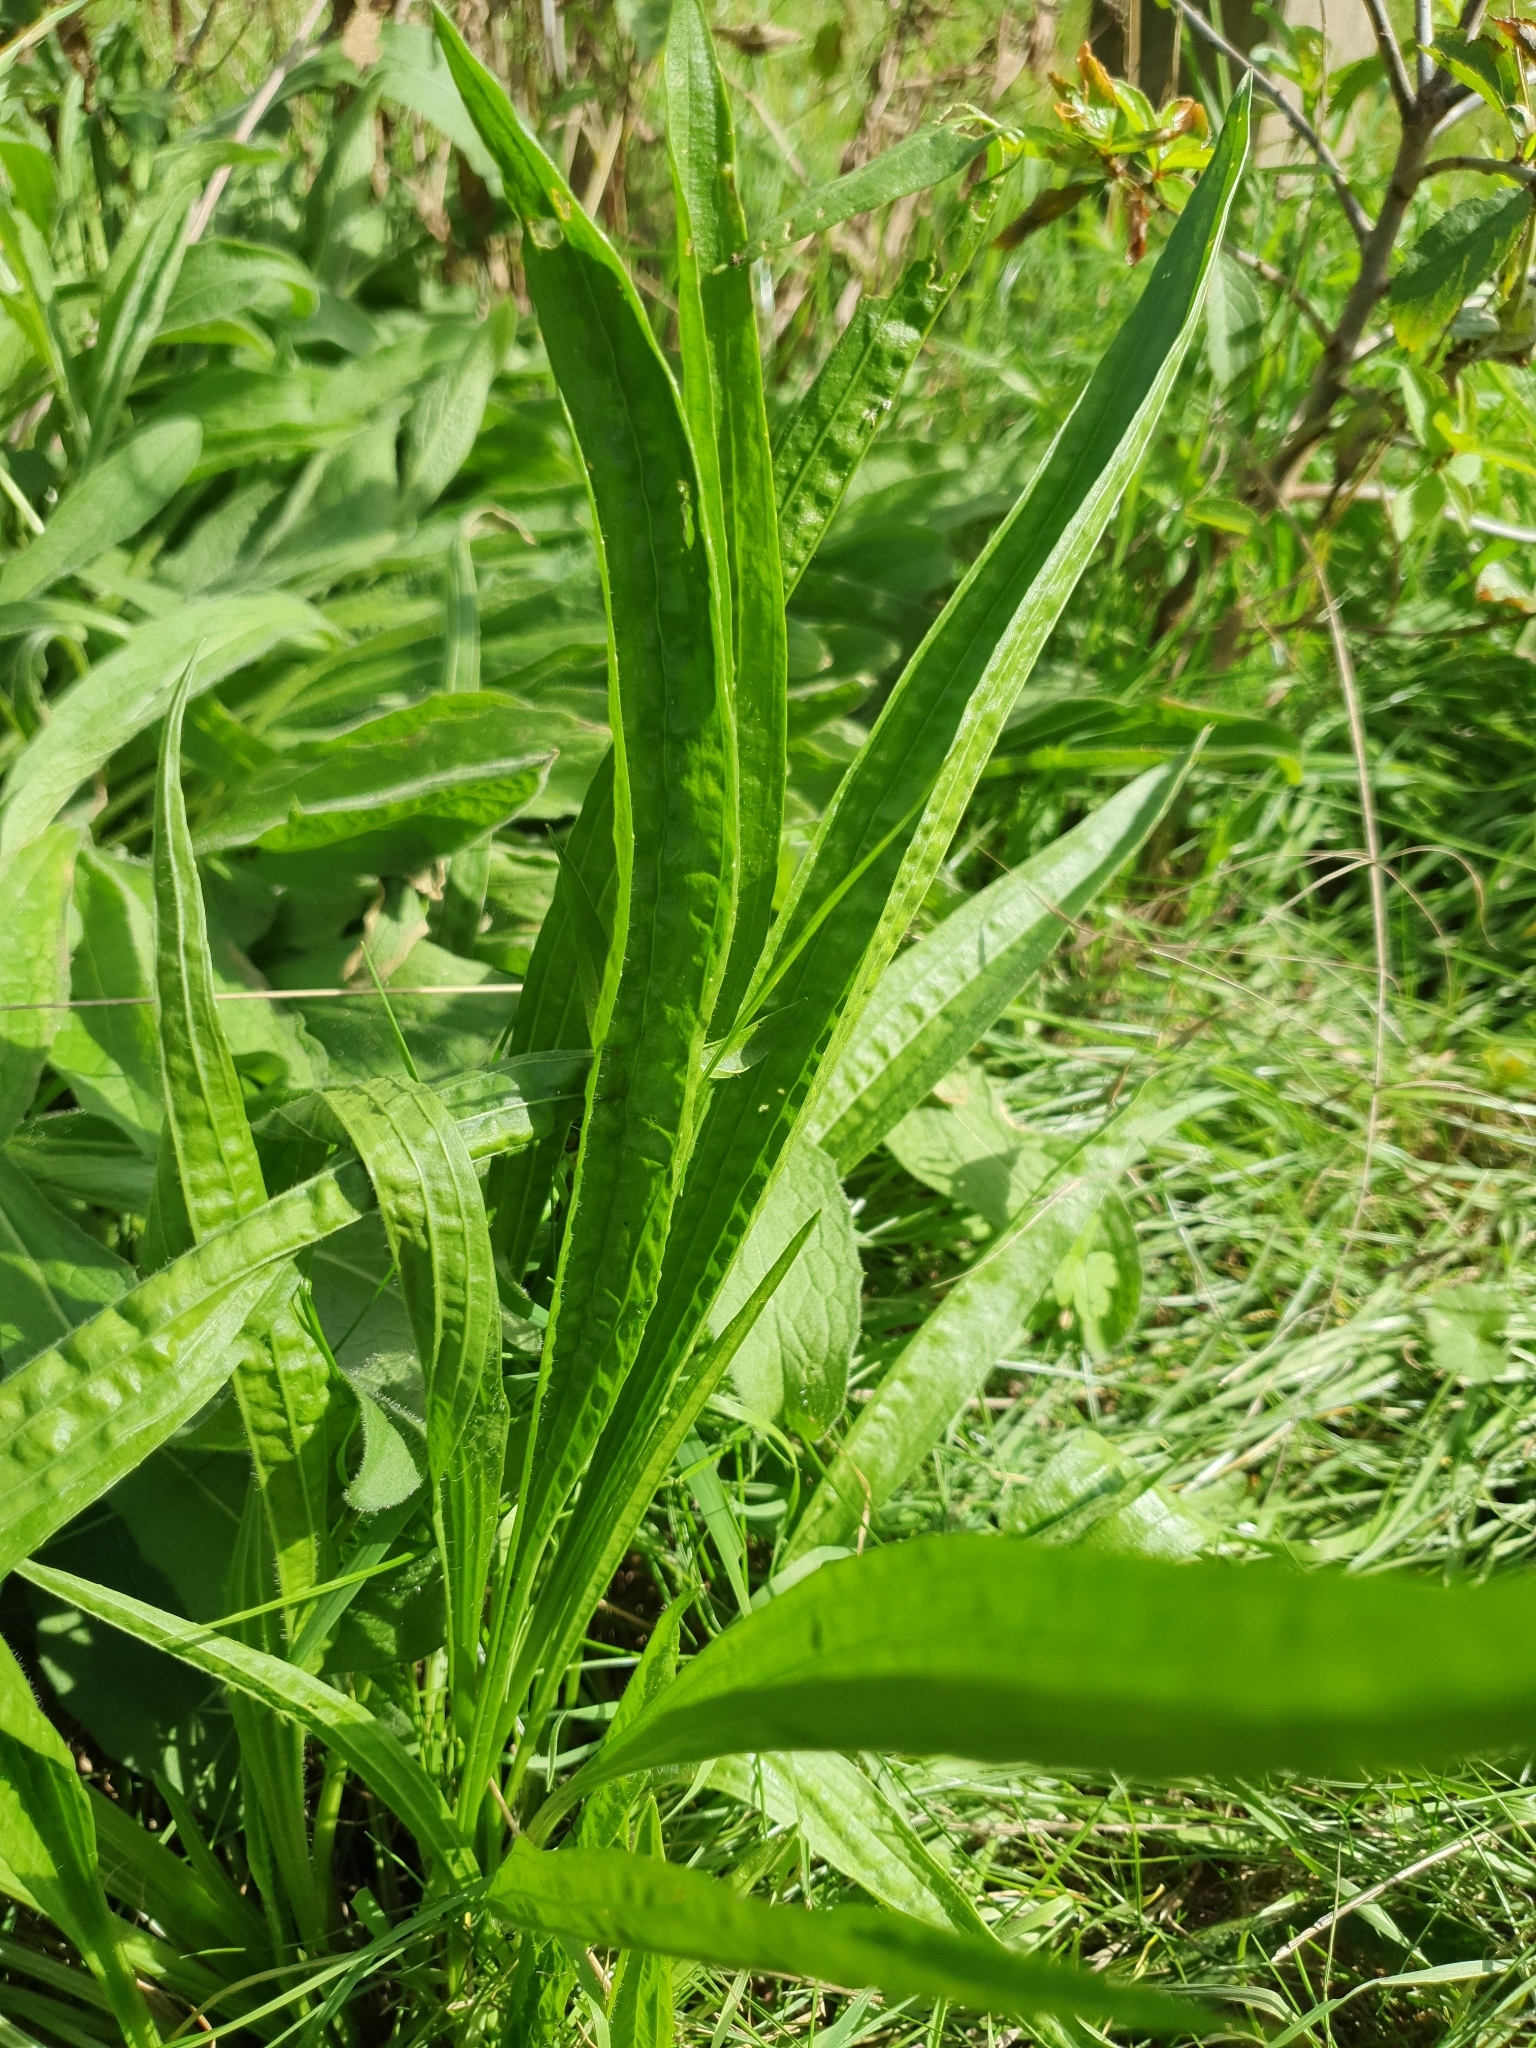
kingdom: Plantae
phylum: Tracheophyta
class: Magnoliopsida
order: Lamiales
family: Plantaginaceae
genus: Plantago
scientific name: Plantago lanceolata
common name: Ribwort plantain
